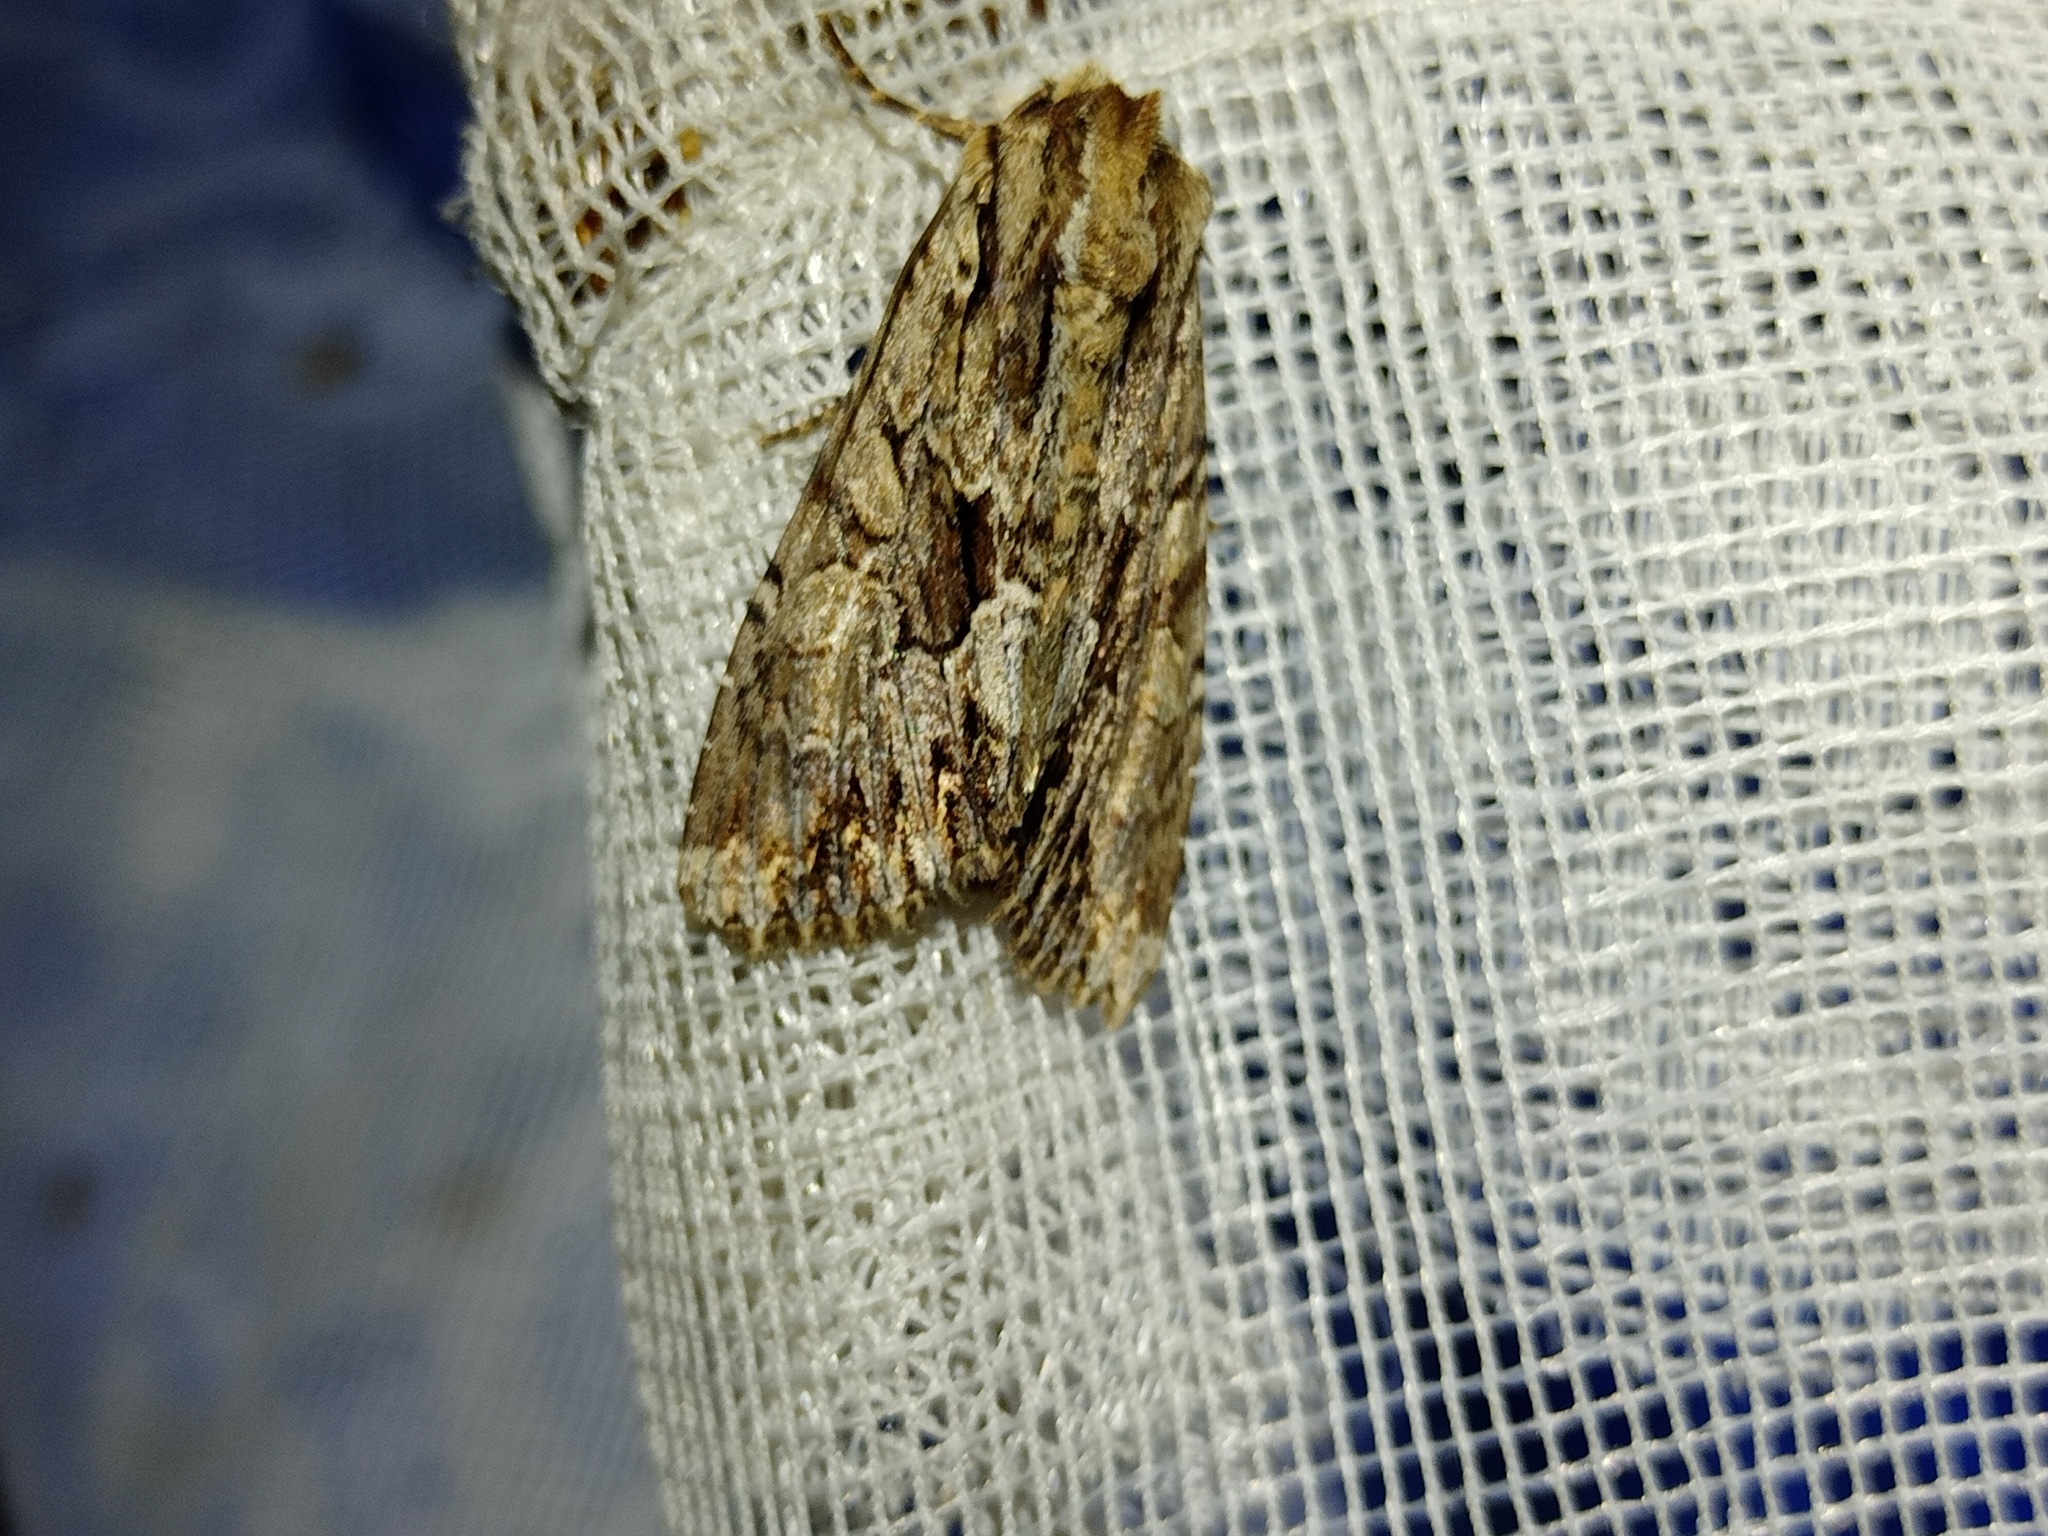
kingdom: Animalia
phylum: Arthropoda
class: Insecta
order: Lepidoptera
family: Noctuidae
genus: Apamea
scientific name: Apamea monoglypha
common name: Dark arches
